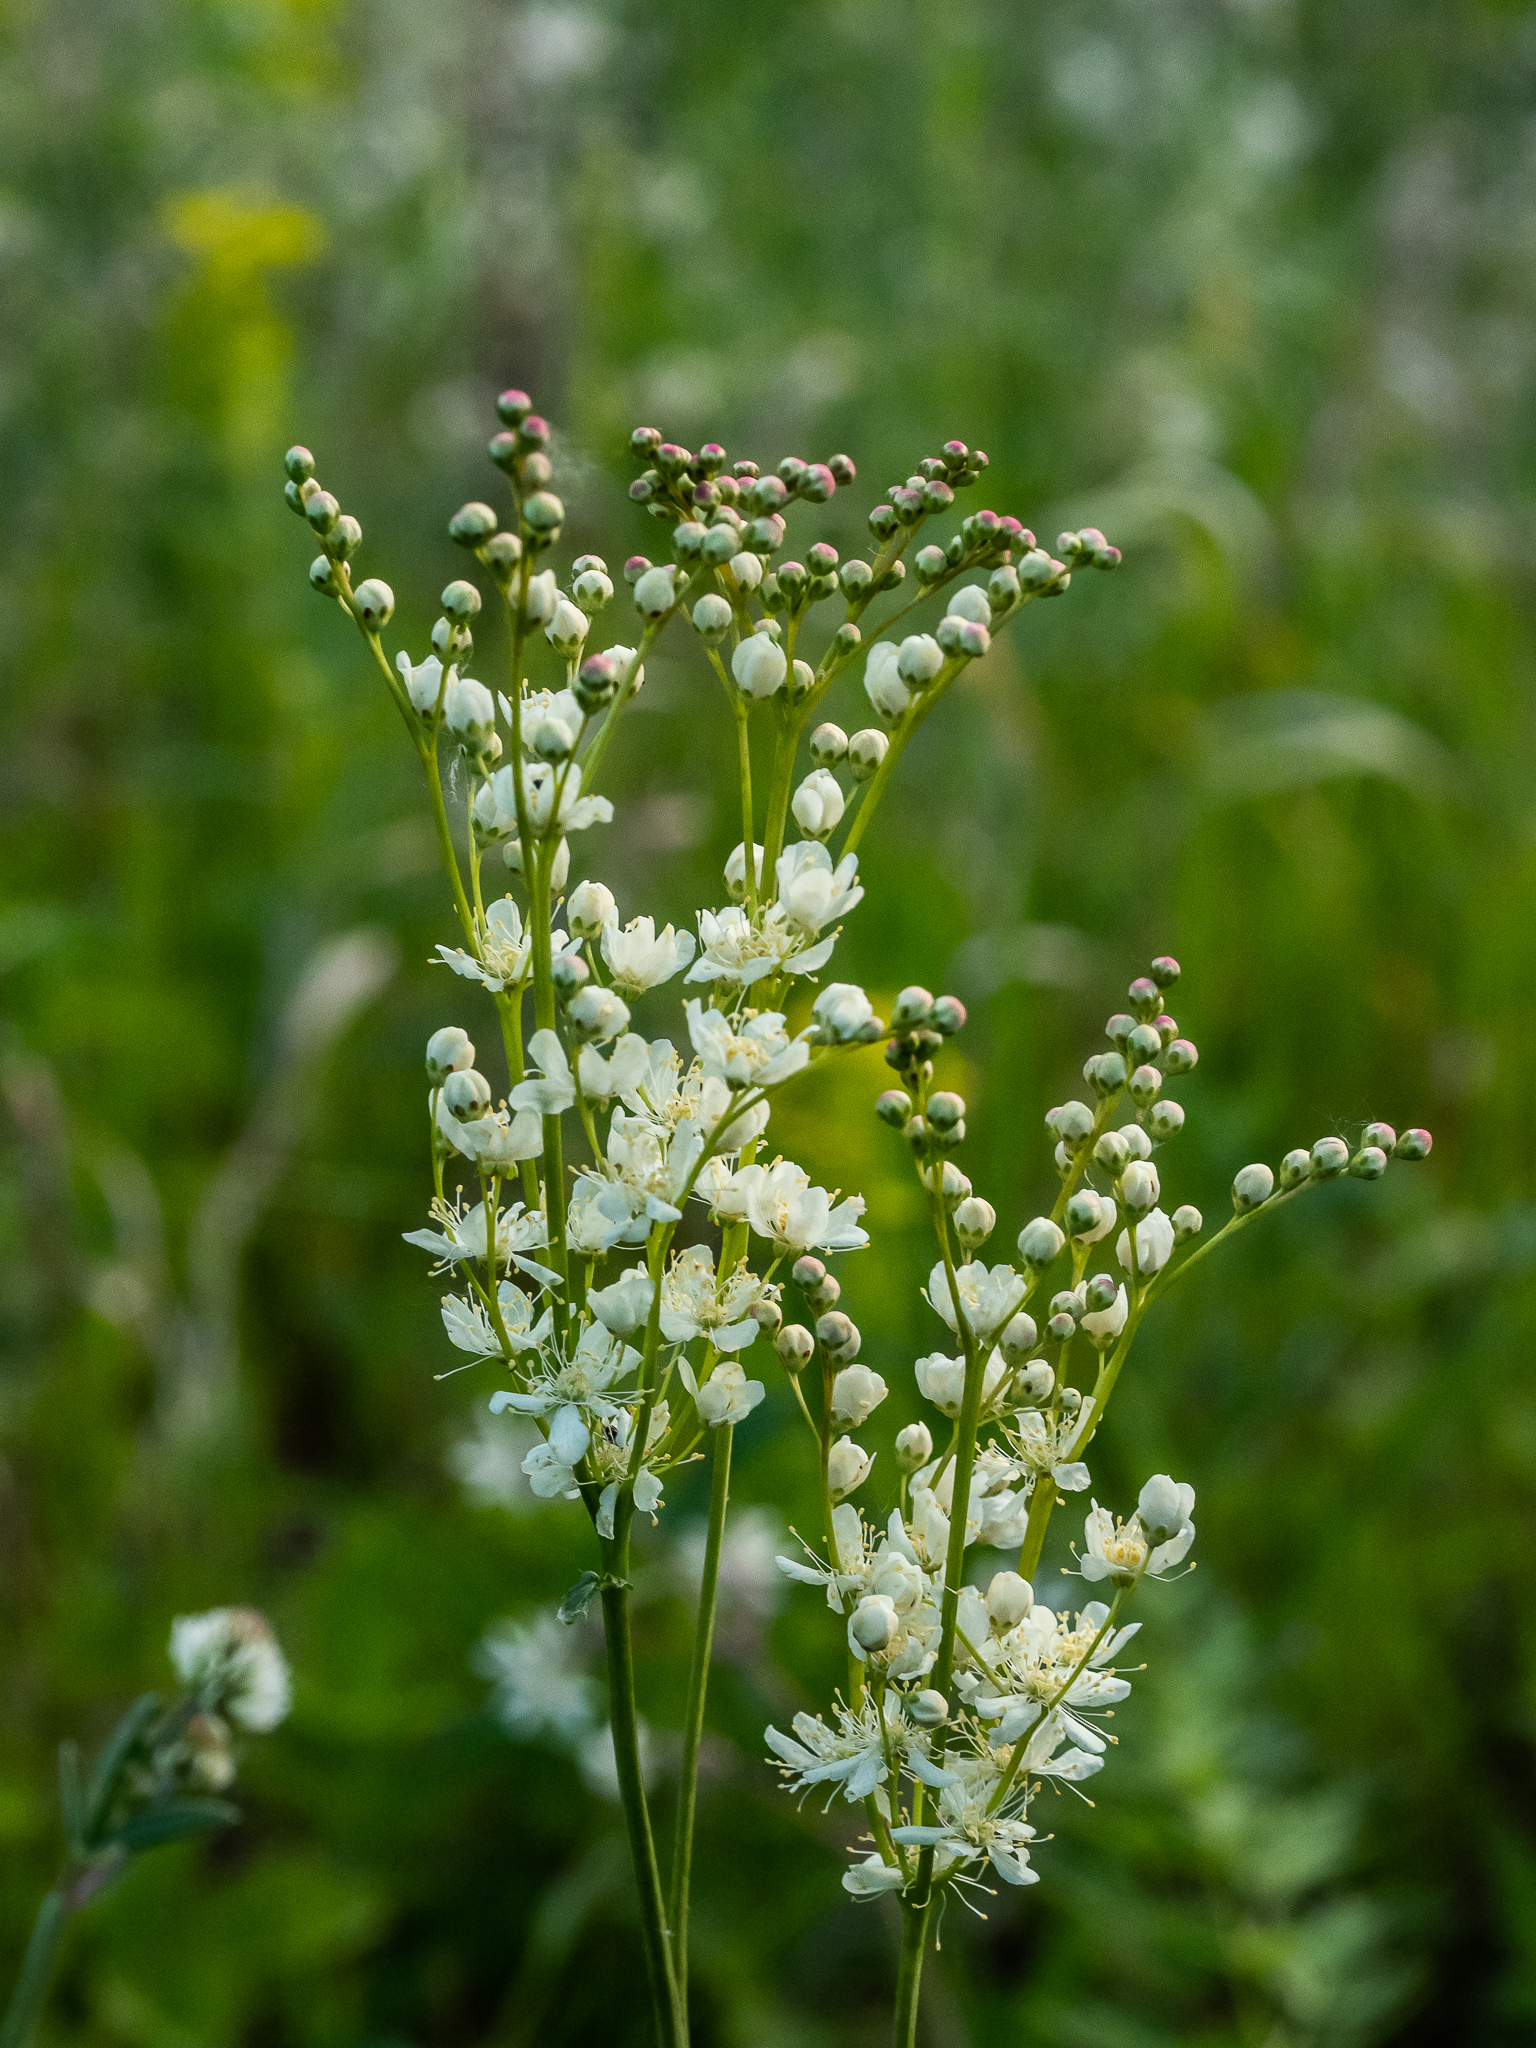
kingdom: Plantae
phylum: Tracheophyta
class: Magnoliopsida
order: Rosales
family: Rosaceae
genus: Filipendula
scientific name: Filipendula vulgaris
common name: Dropwort
